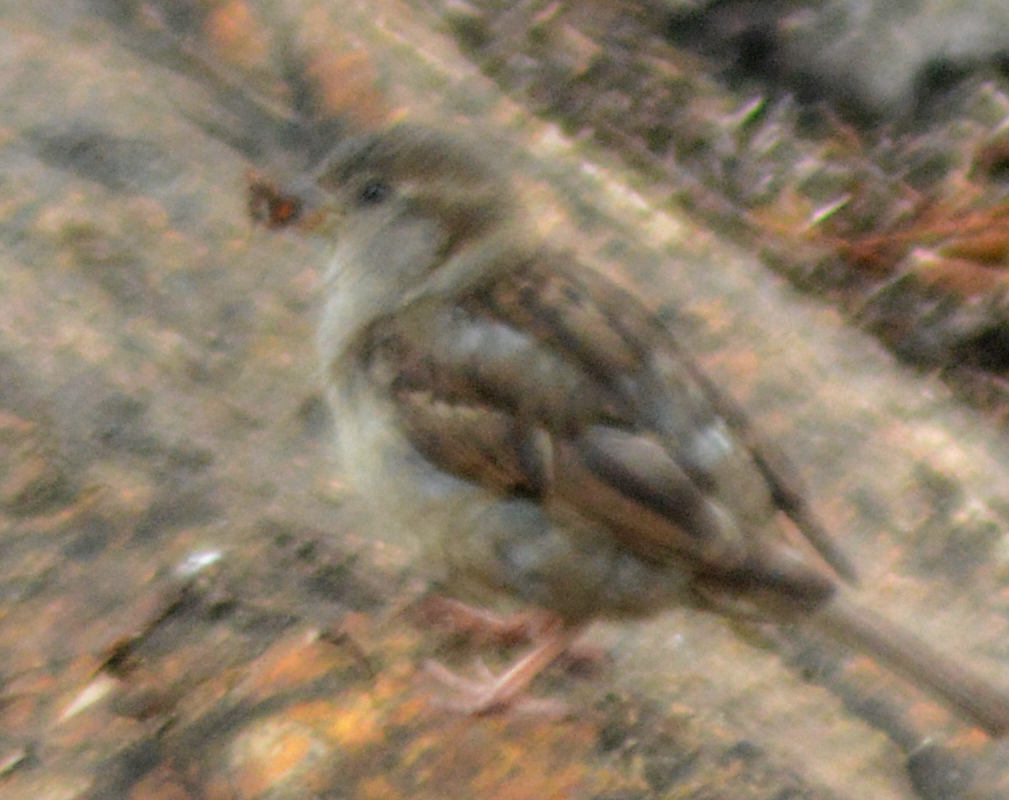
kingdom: Animalia
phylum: Chordata
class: Aves
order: Passeriformes
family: Passeridae
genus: Passer
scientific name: Passer domesticus
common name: House sparrow
